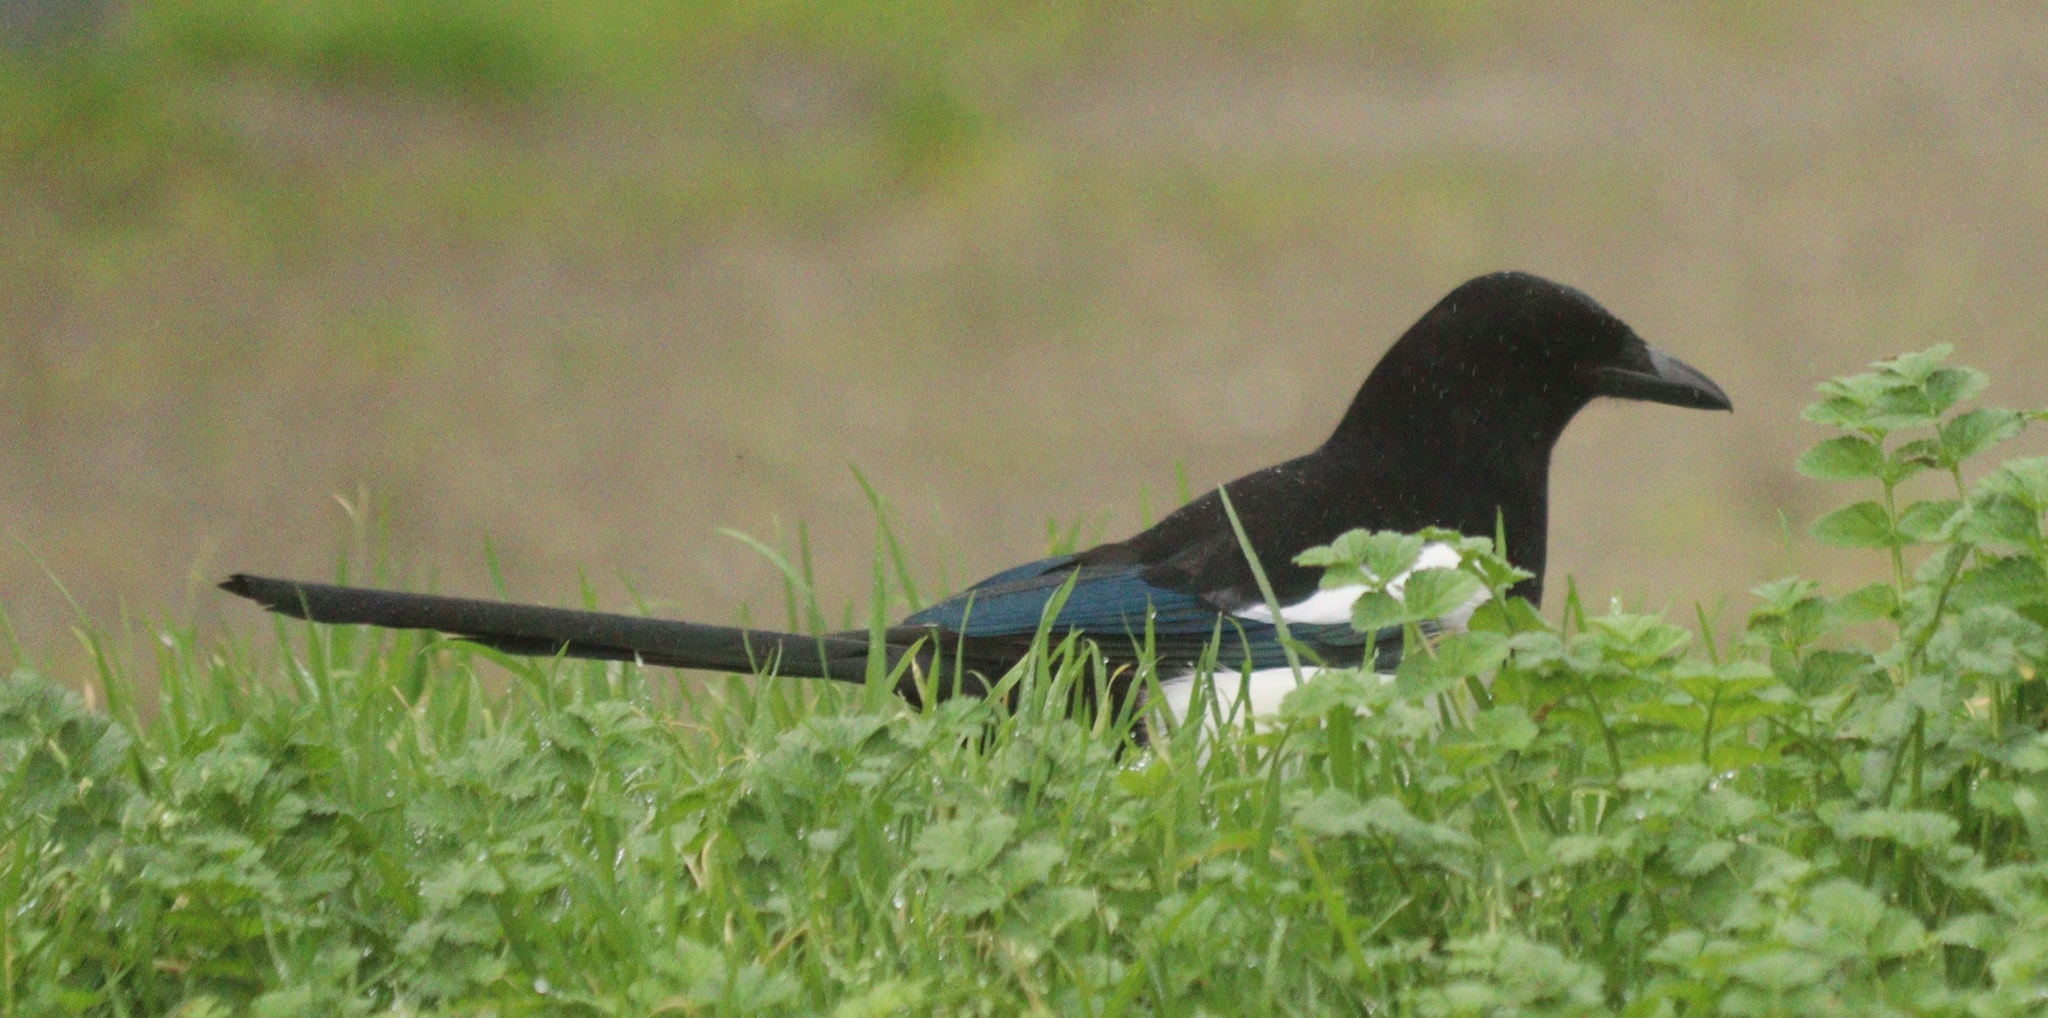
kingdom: Animalia
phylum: Chordata
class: Aves
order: Passeriformes
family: Corvidae
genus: Pica
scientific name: Pica pica
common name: Eurasian magpie
